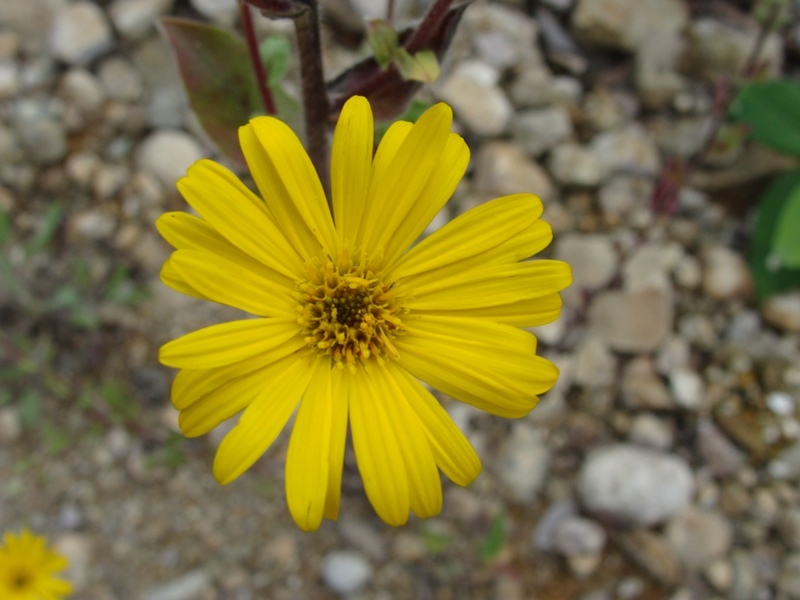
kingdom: Plantae
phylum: Tracheophyta
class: Magnoliopsida
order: Asterales
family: Asteraceae
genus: Heterotheca
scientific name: Heterotheca inuloides
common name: False arnica
